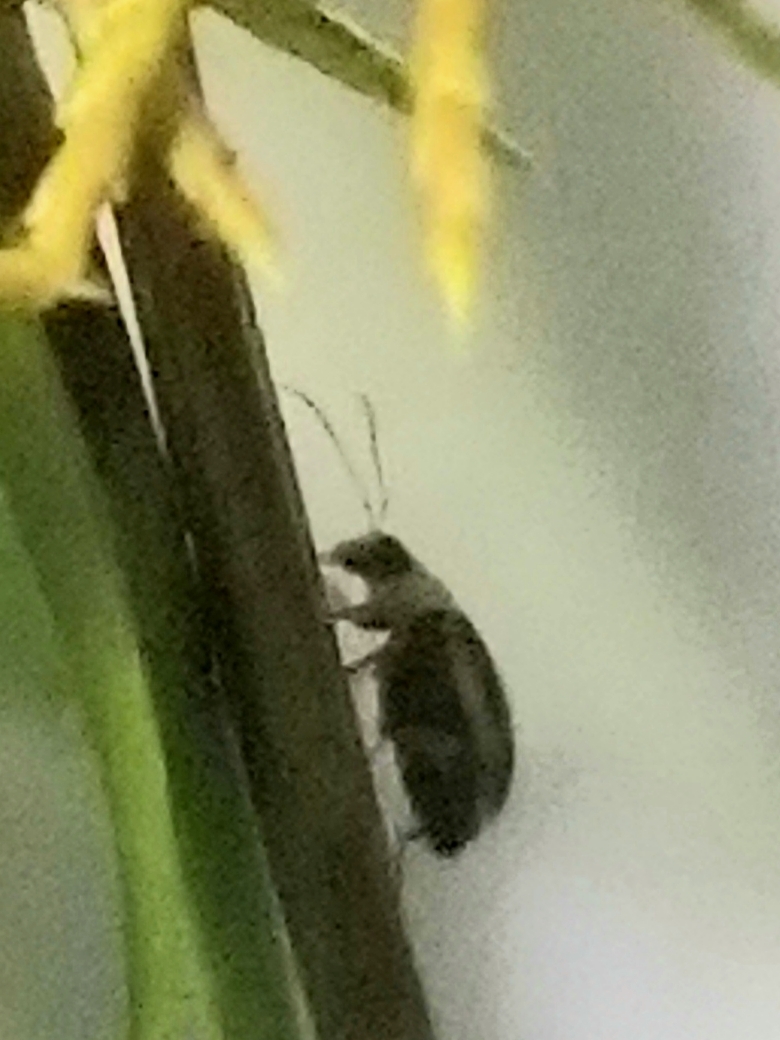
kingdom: Animalia
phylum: Arthropoda
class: Insecta
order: Coleoptera
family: Chrysomelidae
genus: Cerotoma
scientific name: Cerotoma trifurcata
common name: Bean leaf beetle
